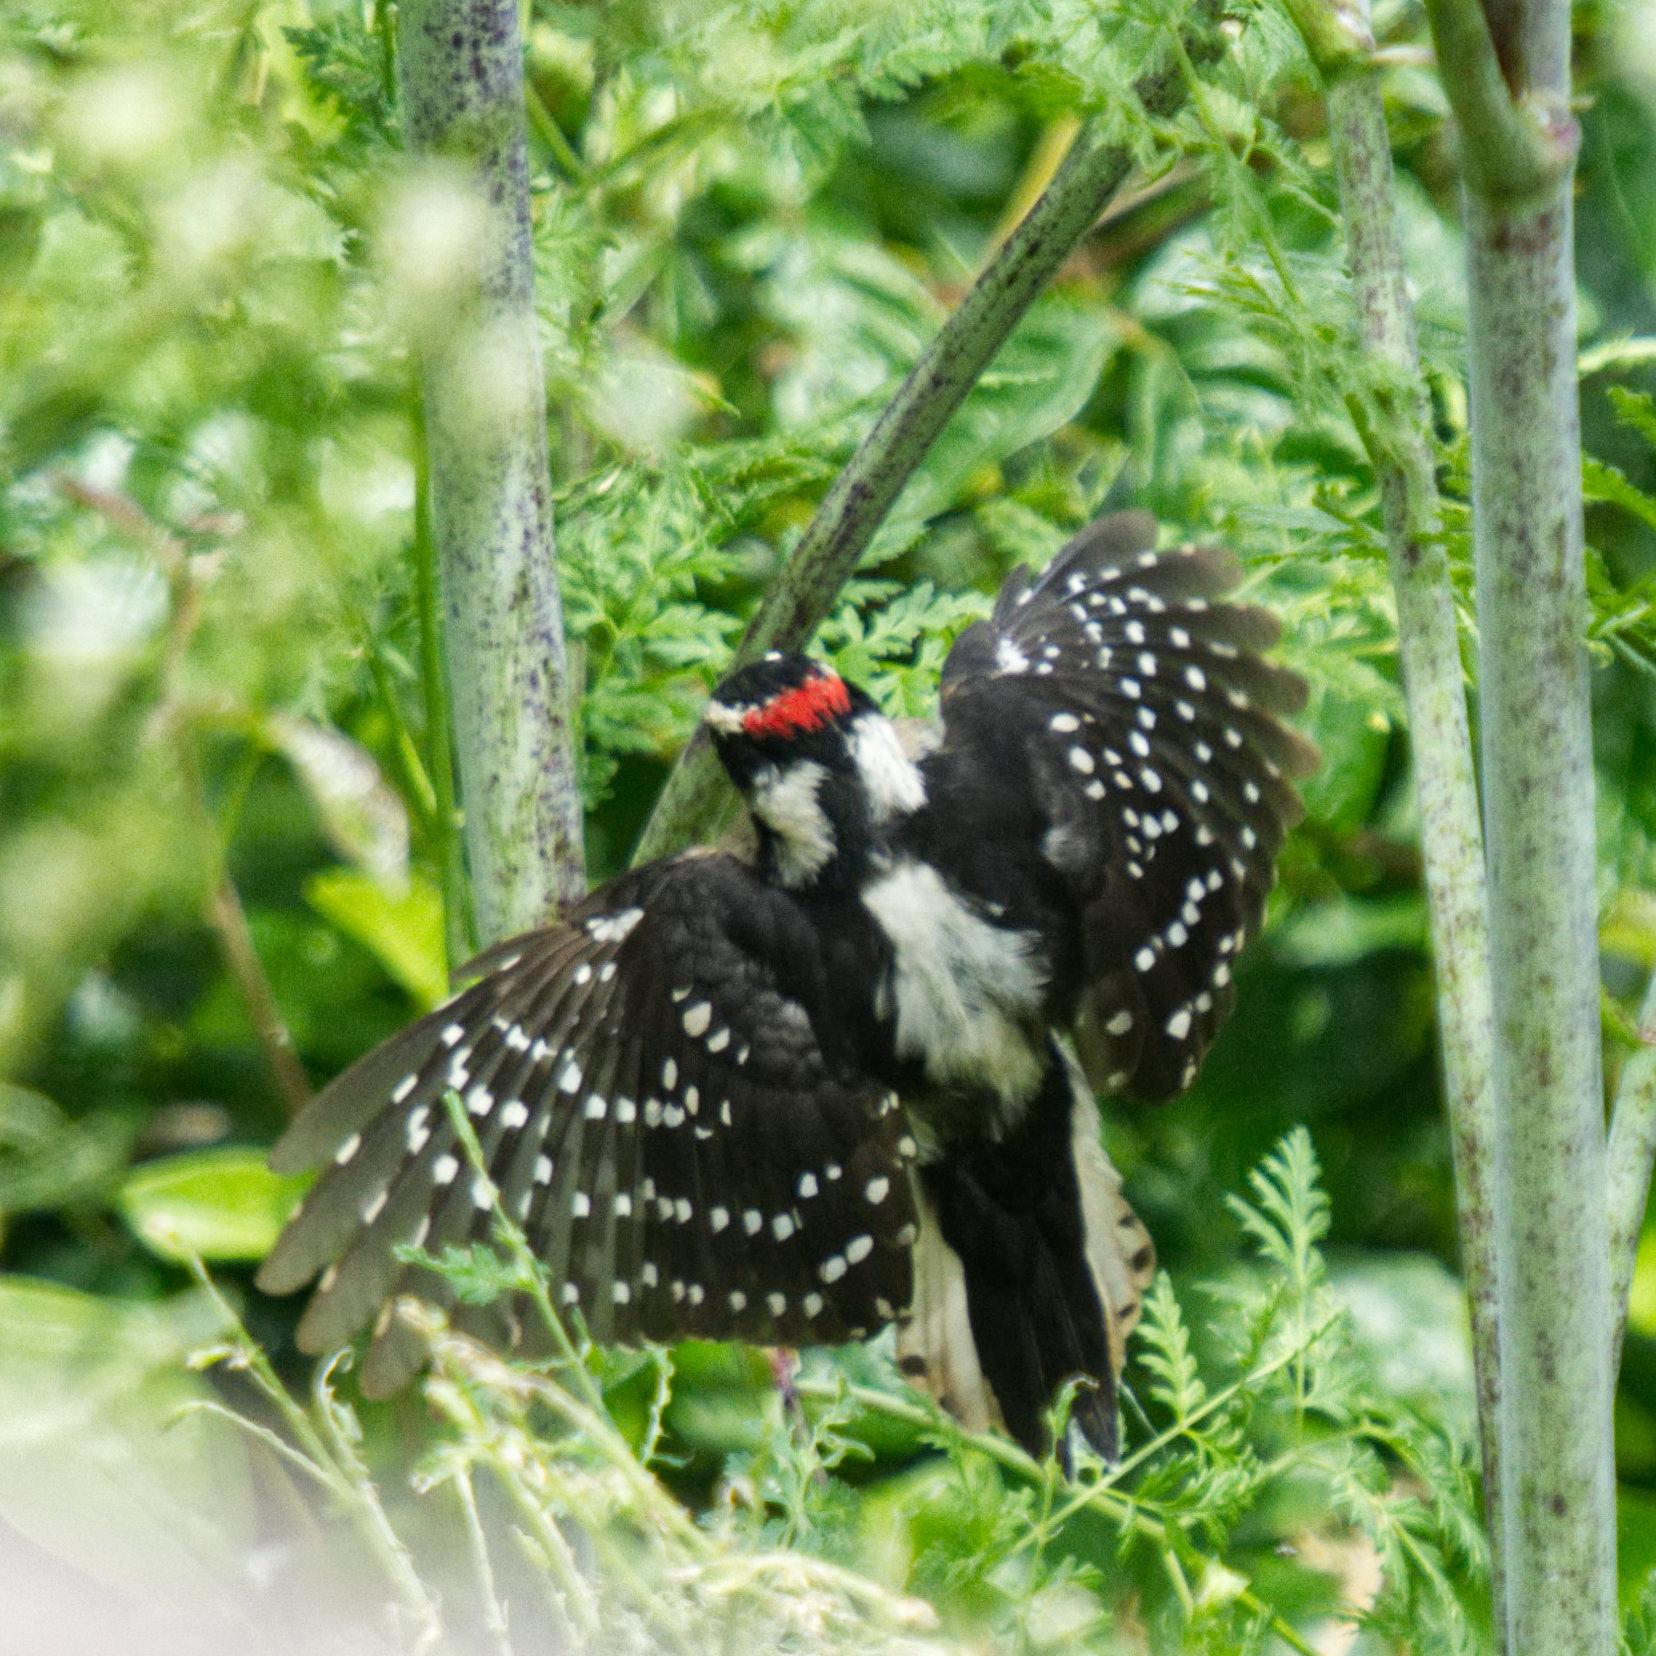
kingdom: Animalia
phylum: Chordata
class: Aves
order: Piciformes
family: Picidae
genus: Dryobates
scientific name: Dryobates pubescens
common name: Downy woodpecker
